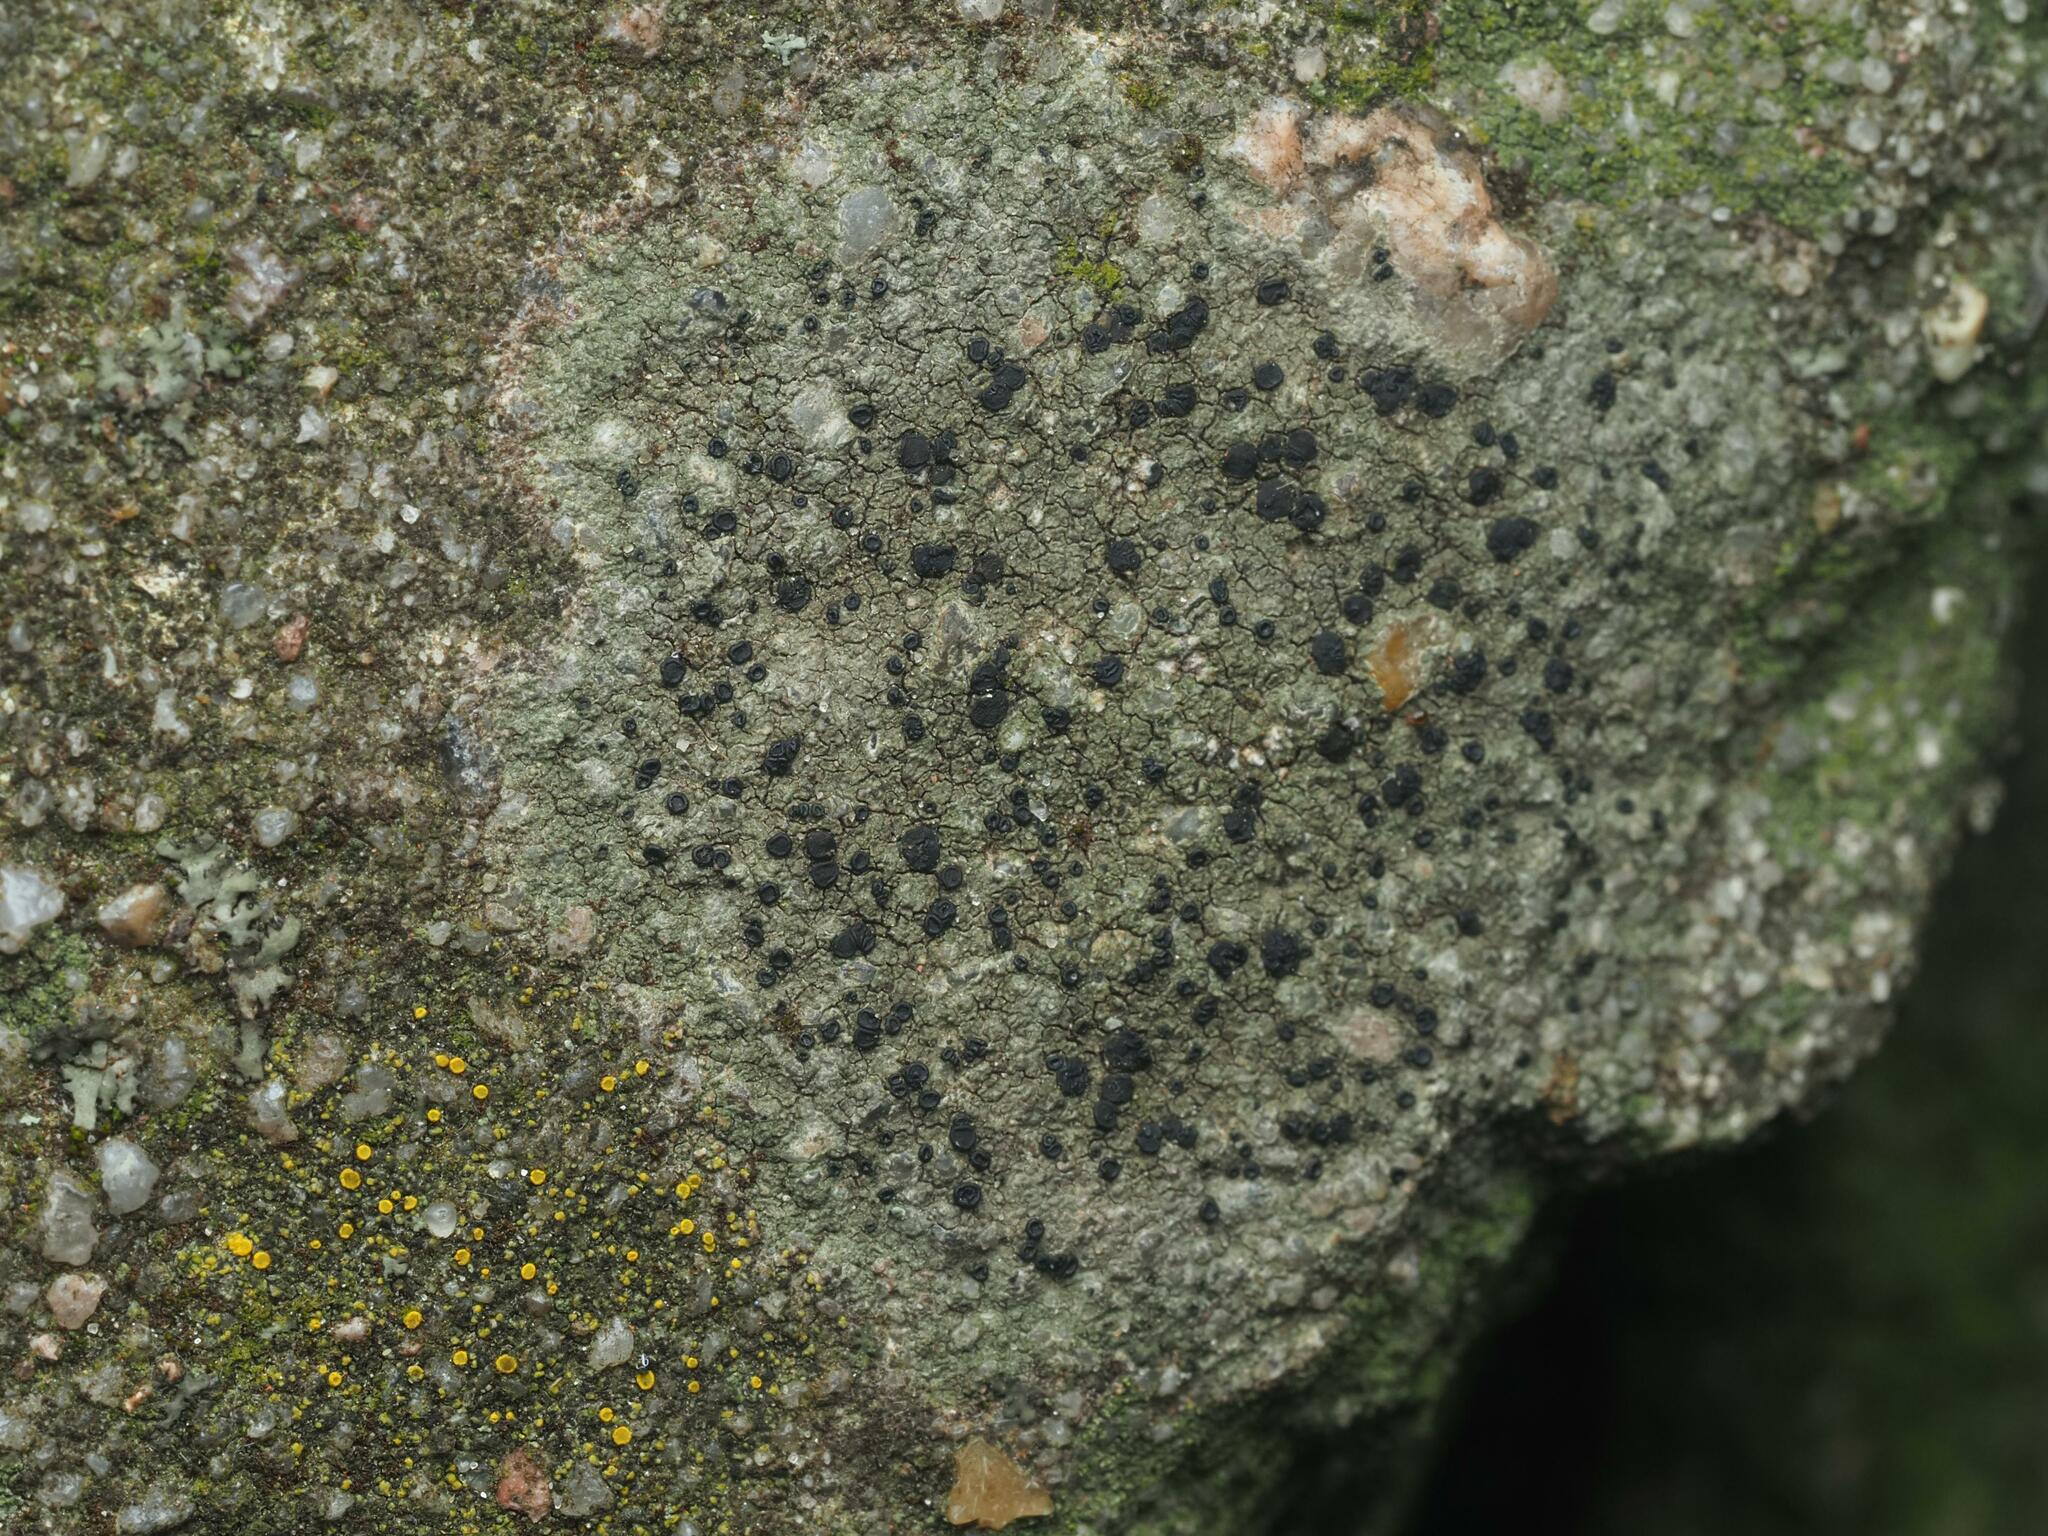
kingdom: Fungi
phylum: Ascomycota
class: Lecanoromycetes
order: Lecanorales
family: Lecanoraceae
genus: Lecidella
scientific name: Lecidella stigmatea
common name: Limestone disc lichen
